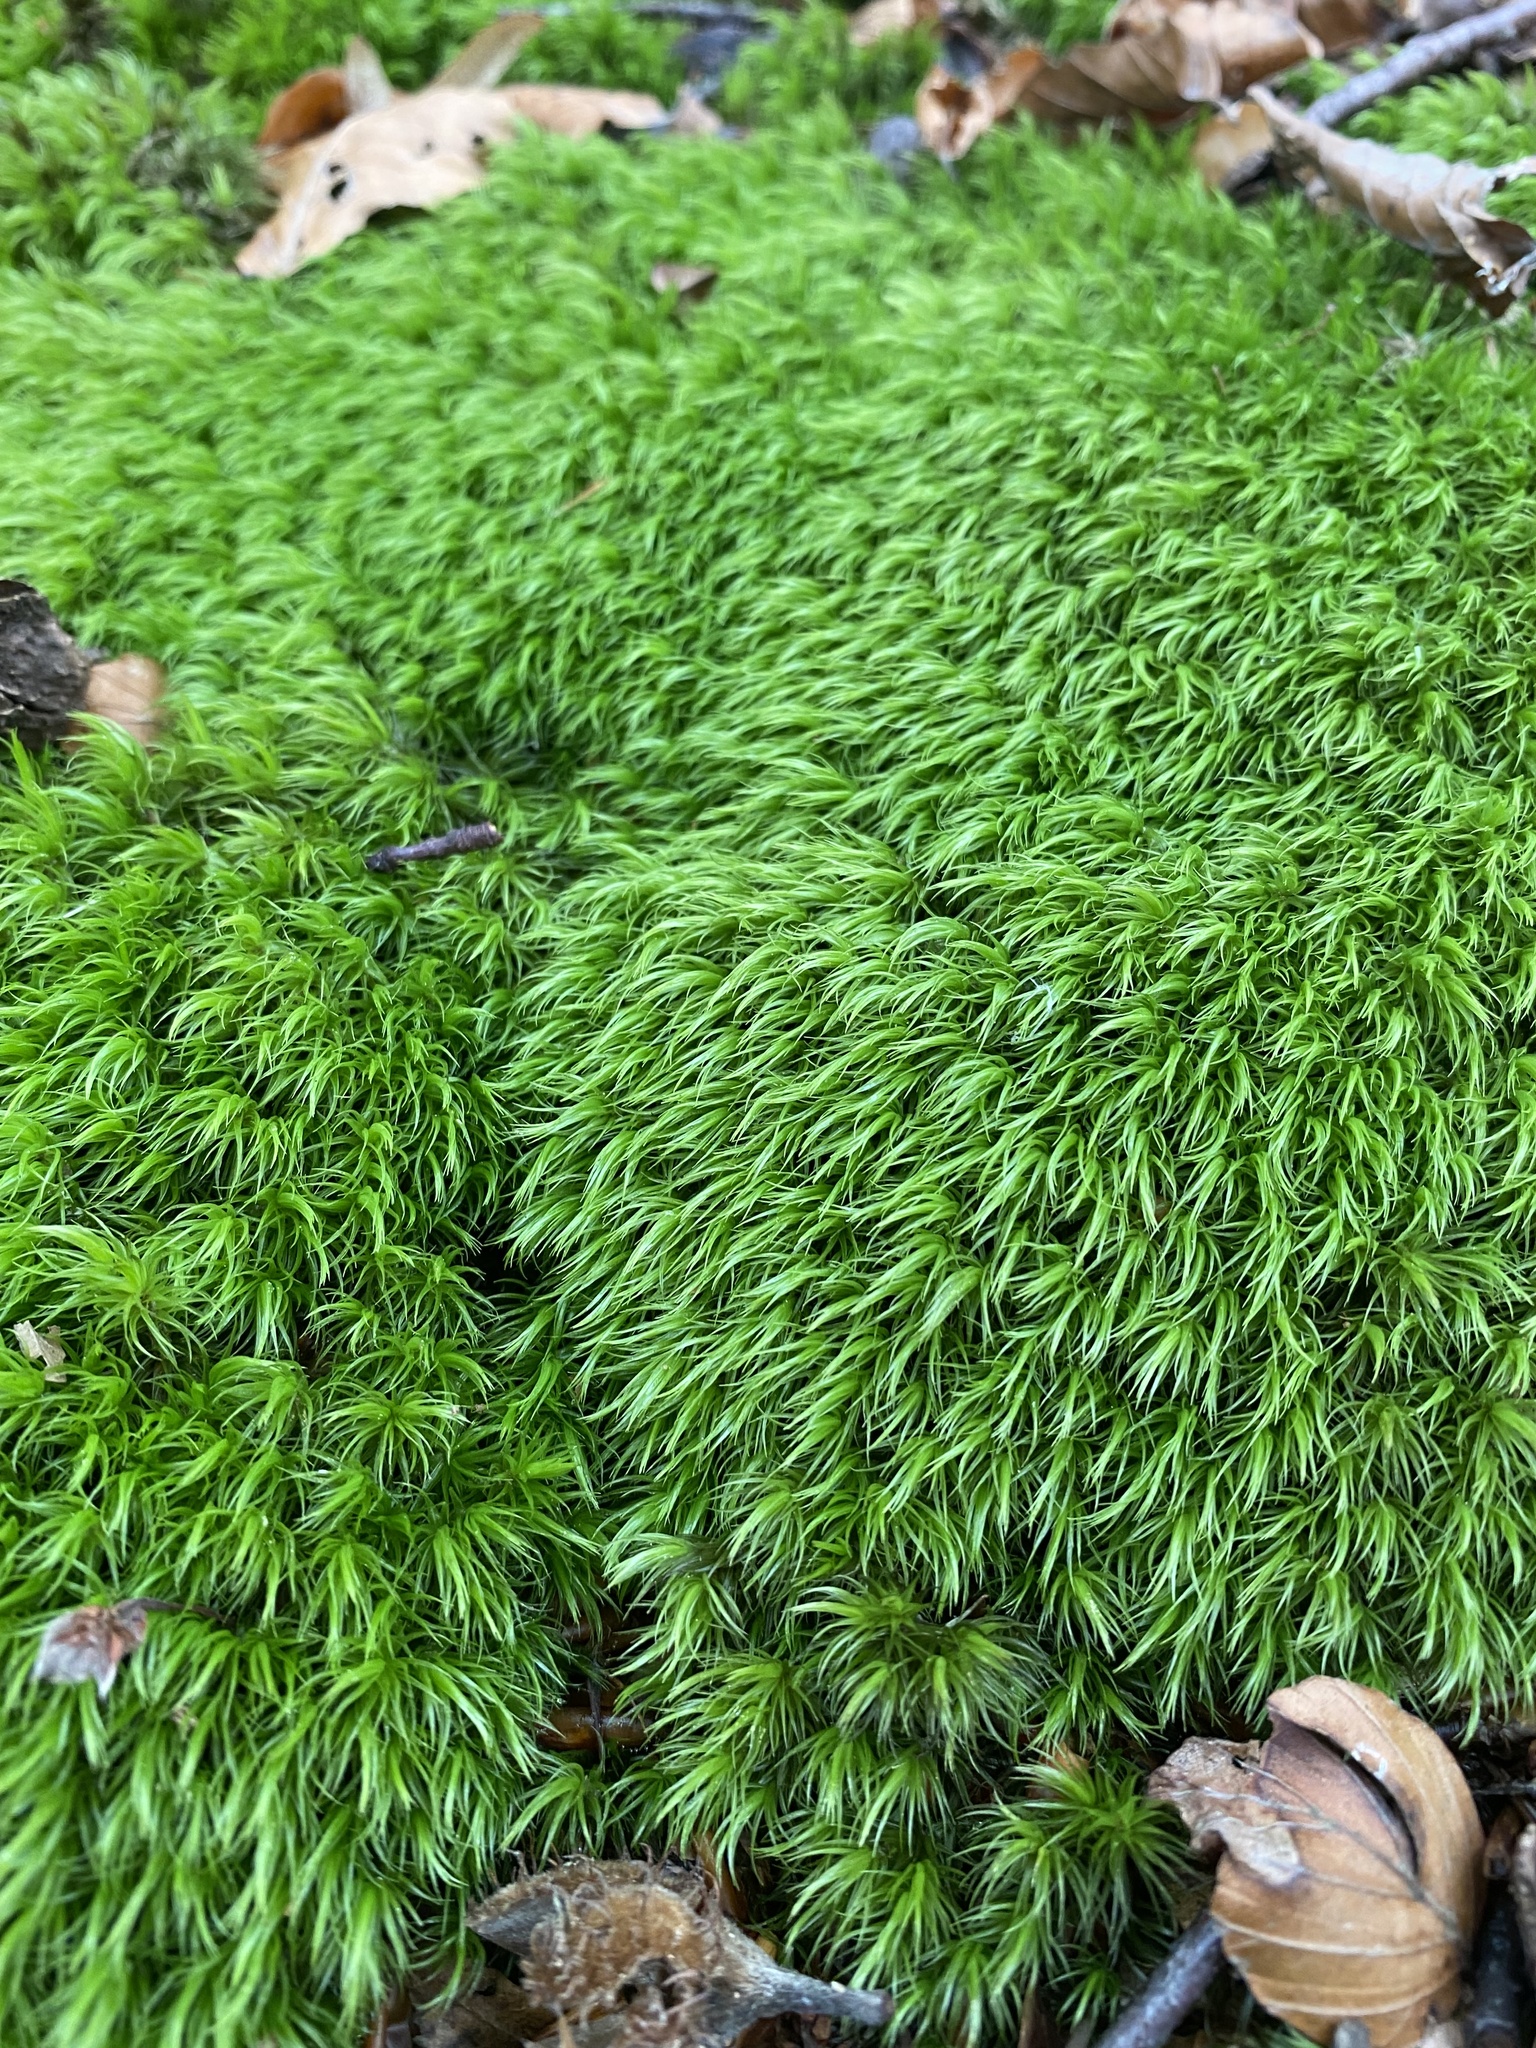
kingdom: Plantae
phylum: Bryophyta
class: Bryopsida
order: Dicranales
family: Dicranaceae
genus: Dicranum
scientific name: Dicranum scoparium
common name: Broom fork-moss
